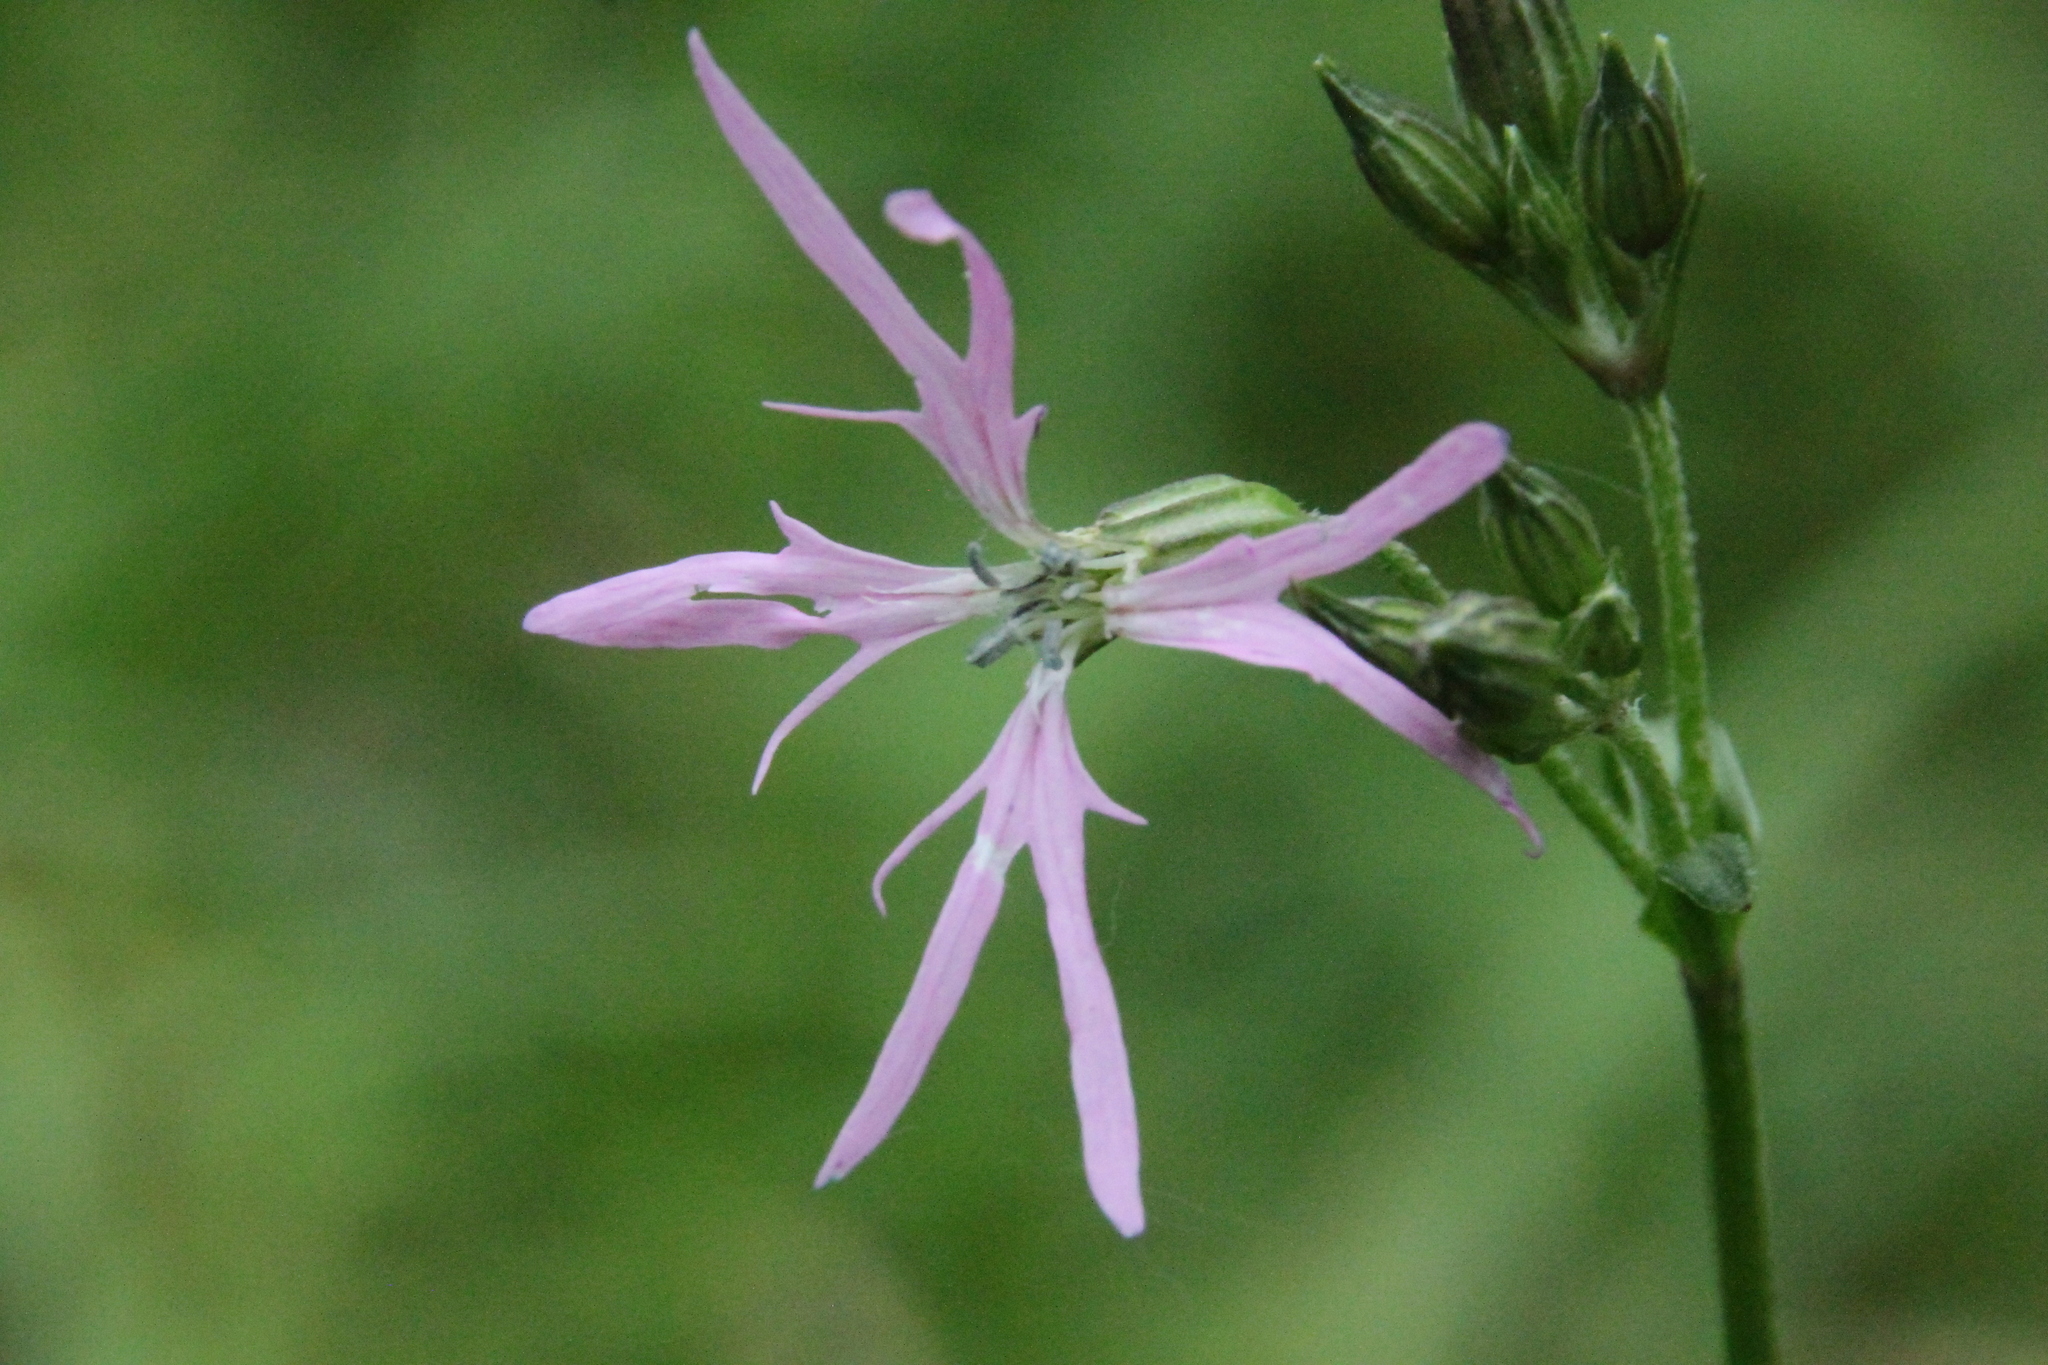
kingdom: Plantae
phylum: Tracheophyta
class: Magnoliopsida
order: Caryophyllales
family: Caryophyllaceae
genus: Silene
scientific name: Silene flos-cuculi
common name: Ragged-robin
